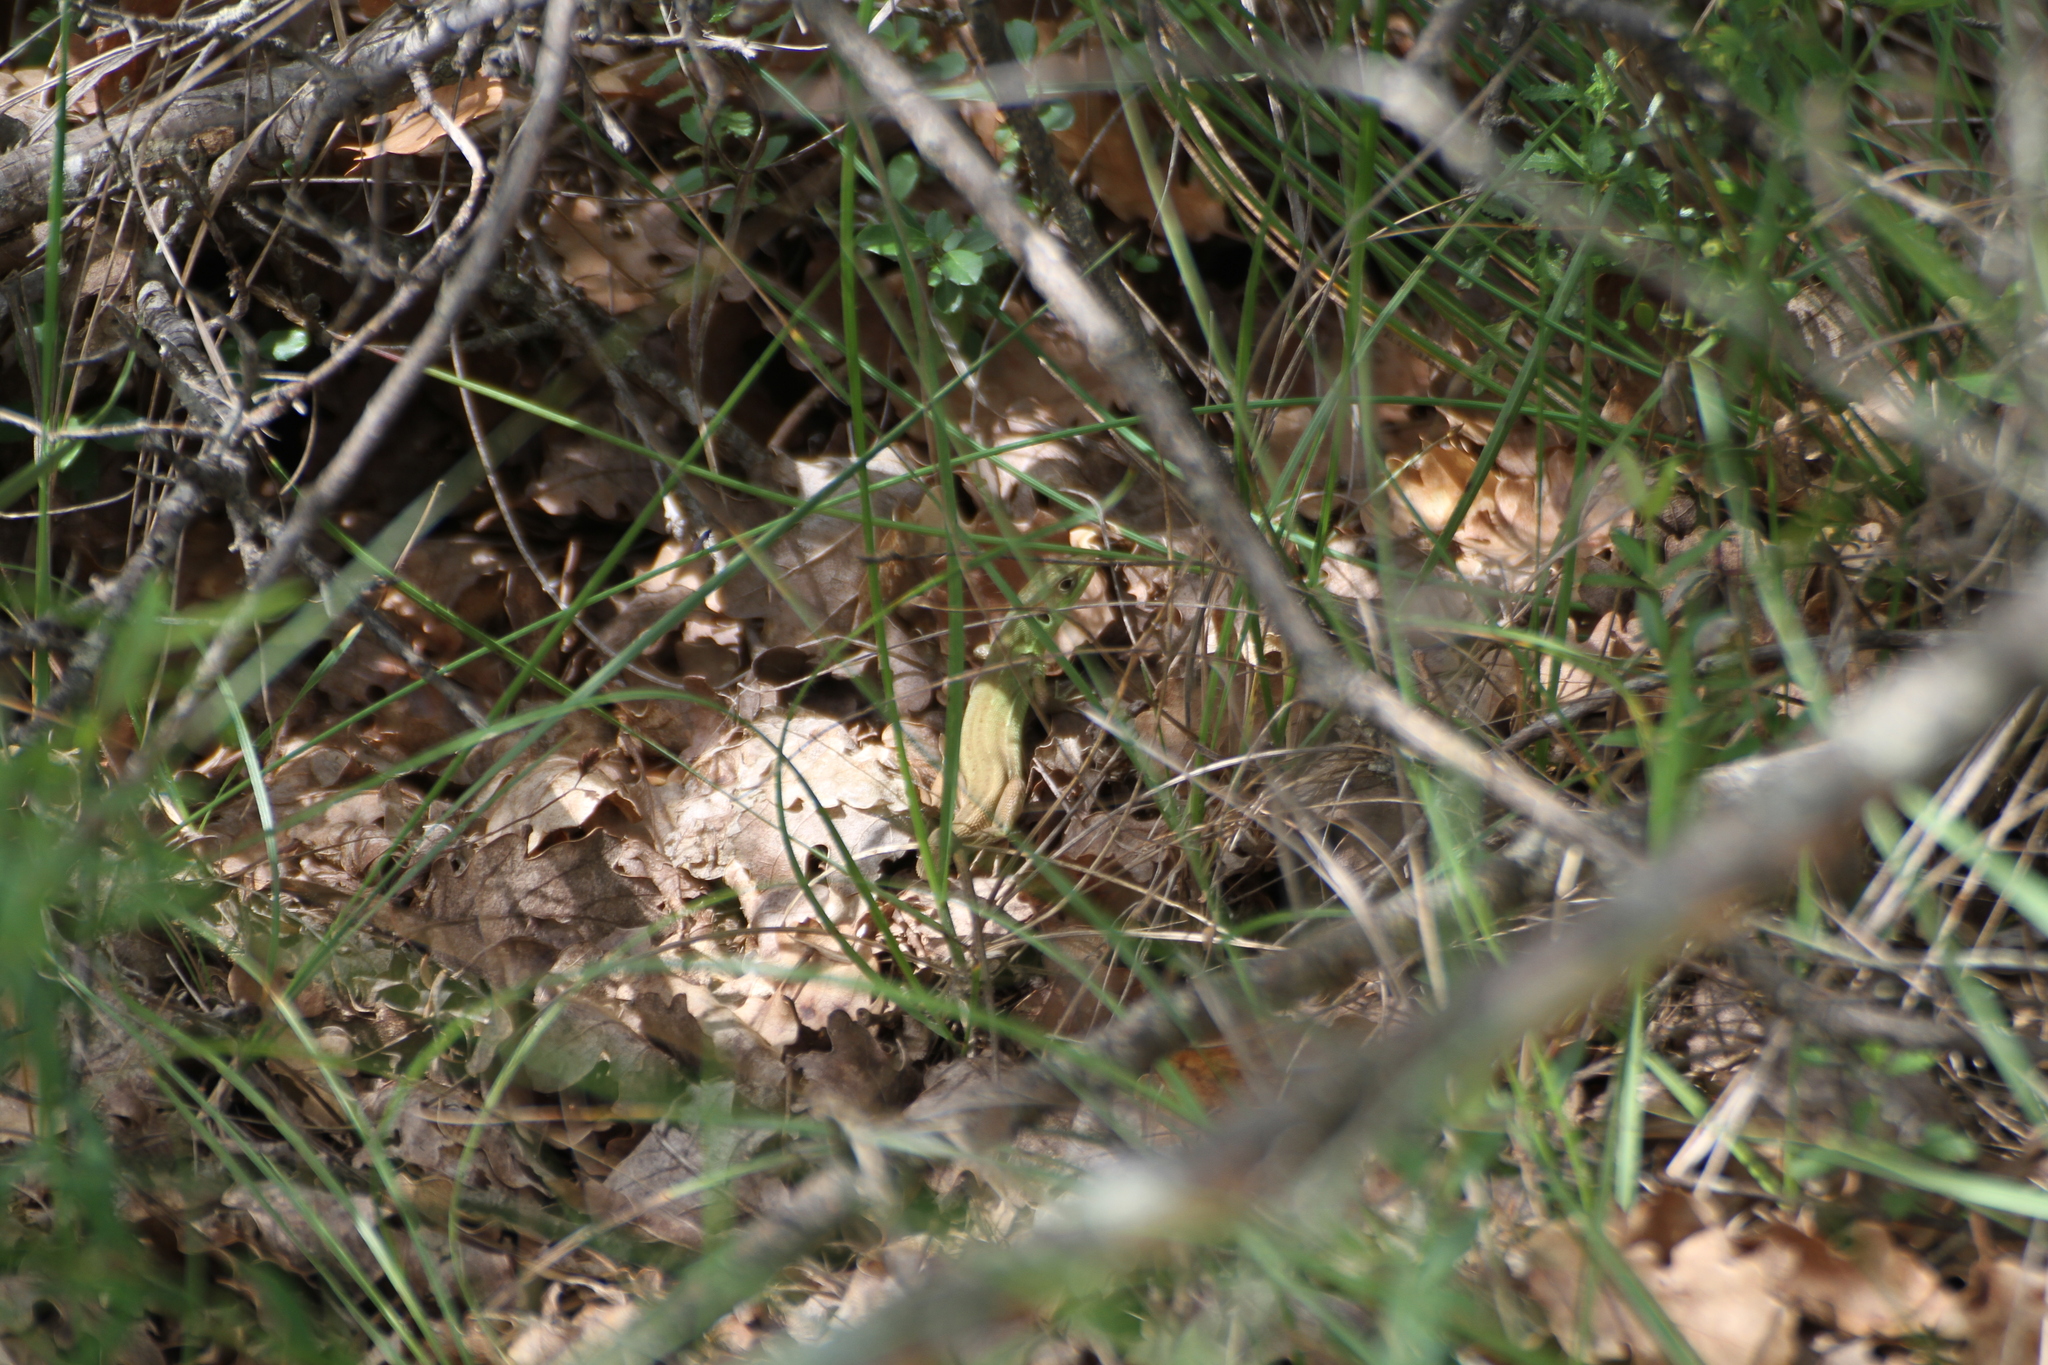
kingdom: Animalia
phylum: Chordata
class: Squamata
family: Lacertidae
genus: Lacerta
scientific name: Lacerta bilineata
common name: Western green lizard
